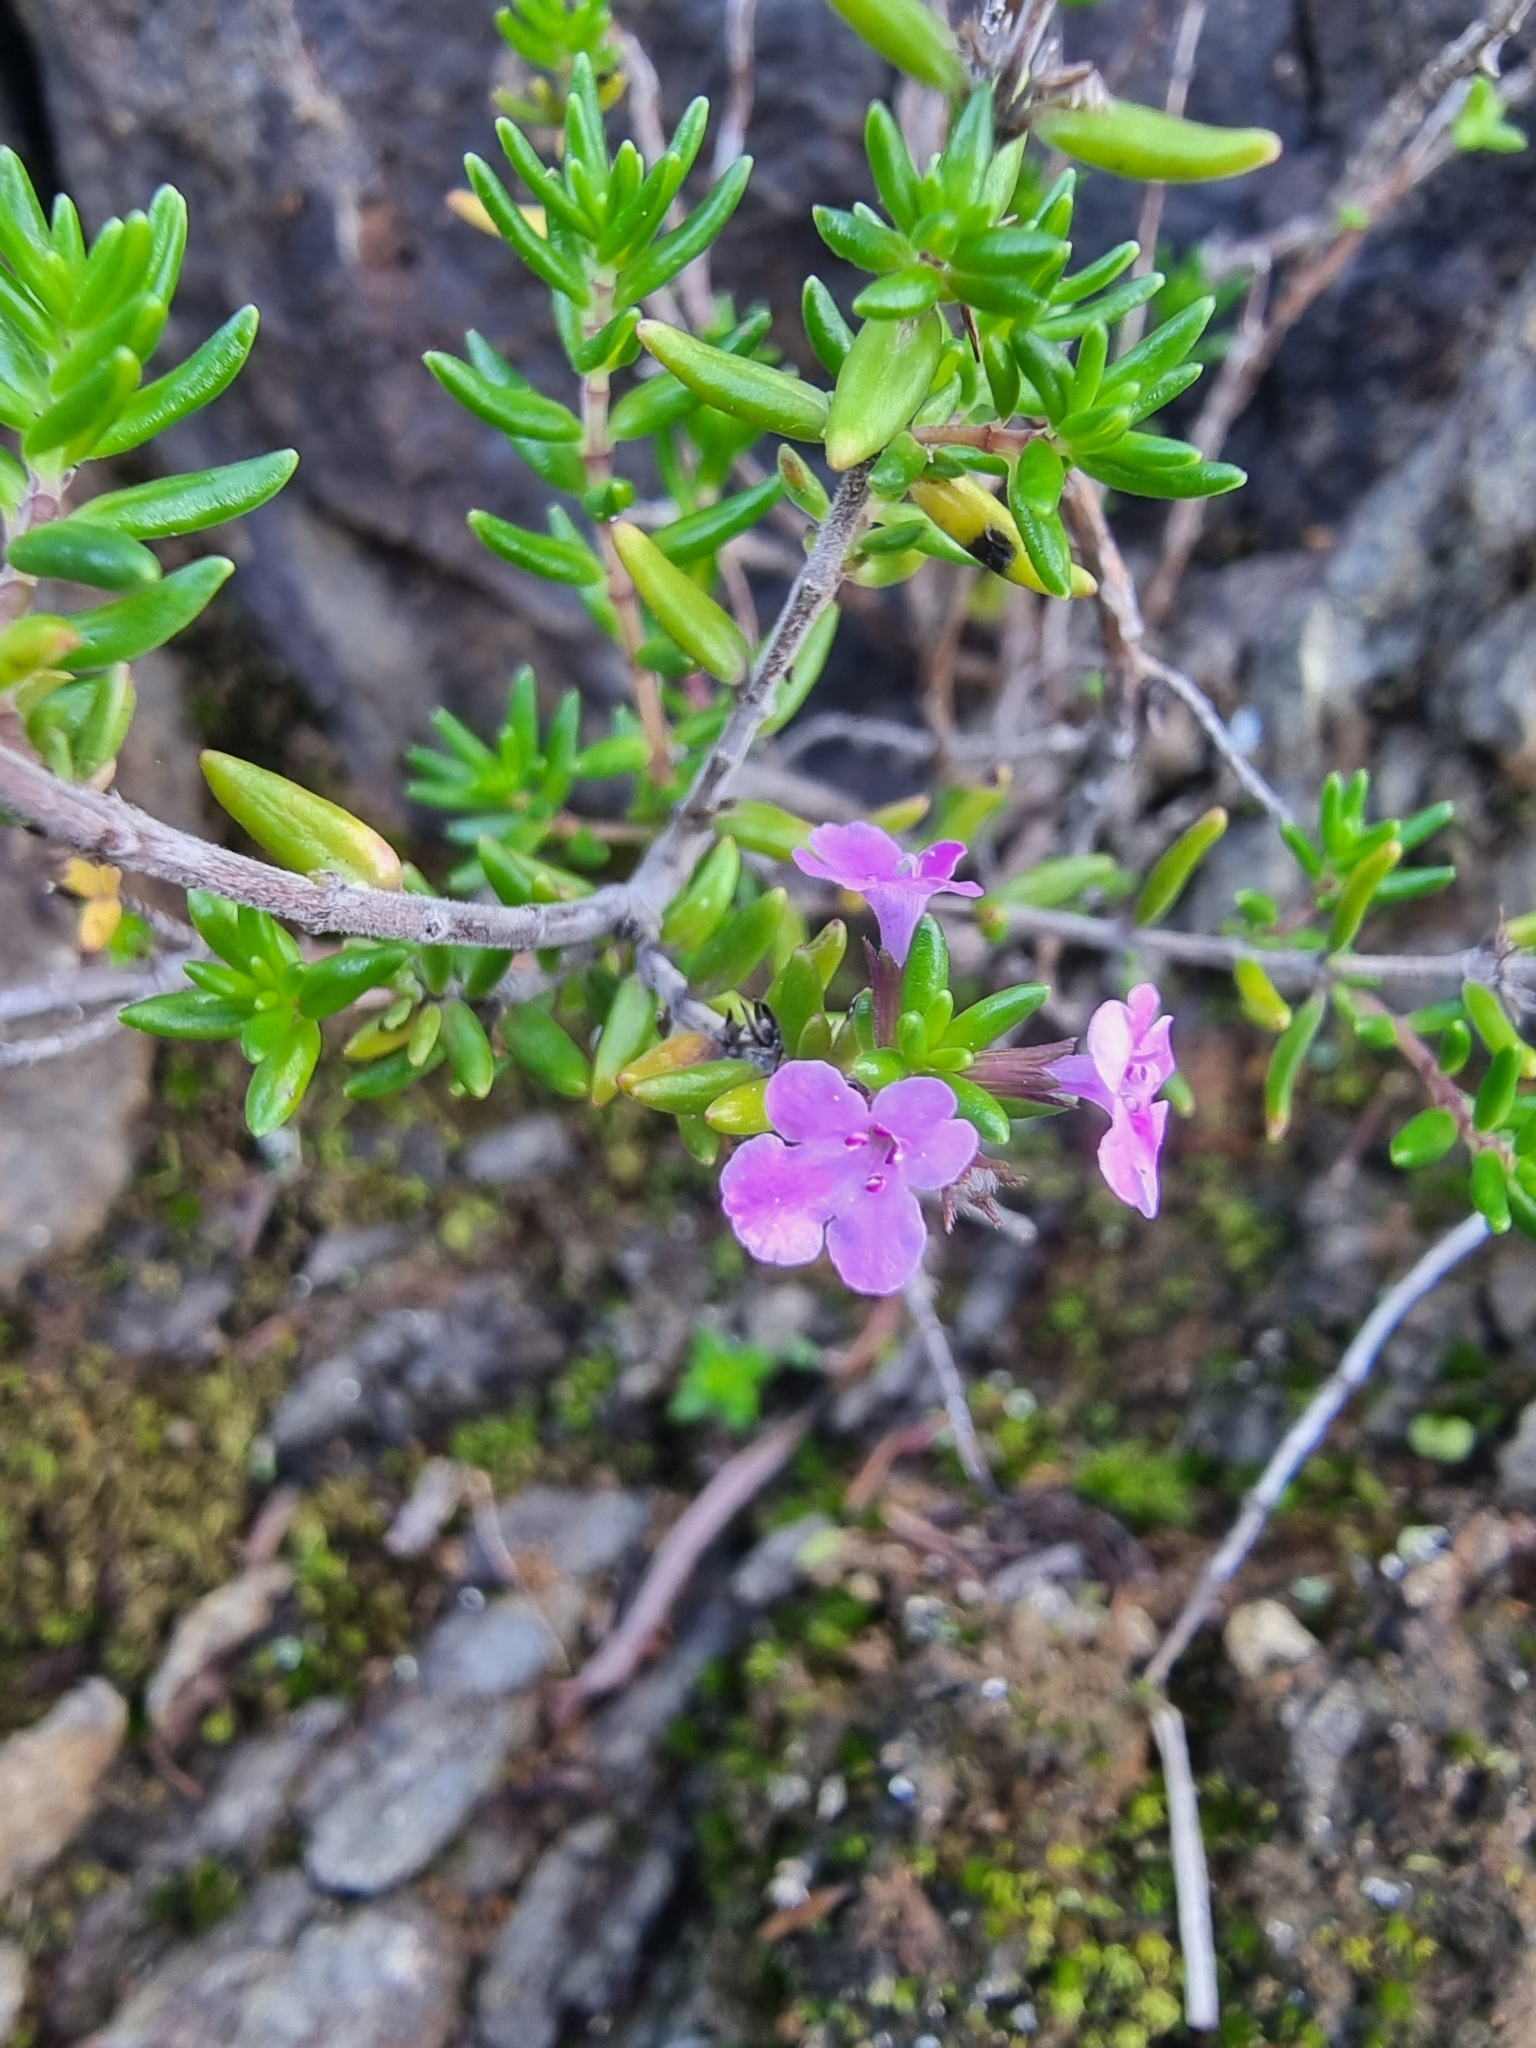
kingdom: Plantae
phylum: Tracheophyta
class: Magnoliopsida
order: Lamiales
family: Lamiaceae
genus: Micromeria
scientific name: Micromeria maderensis
